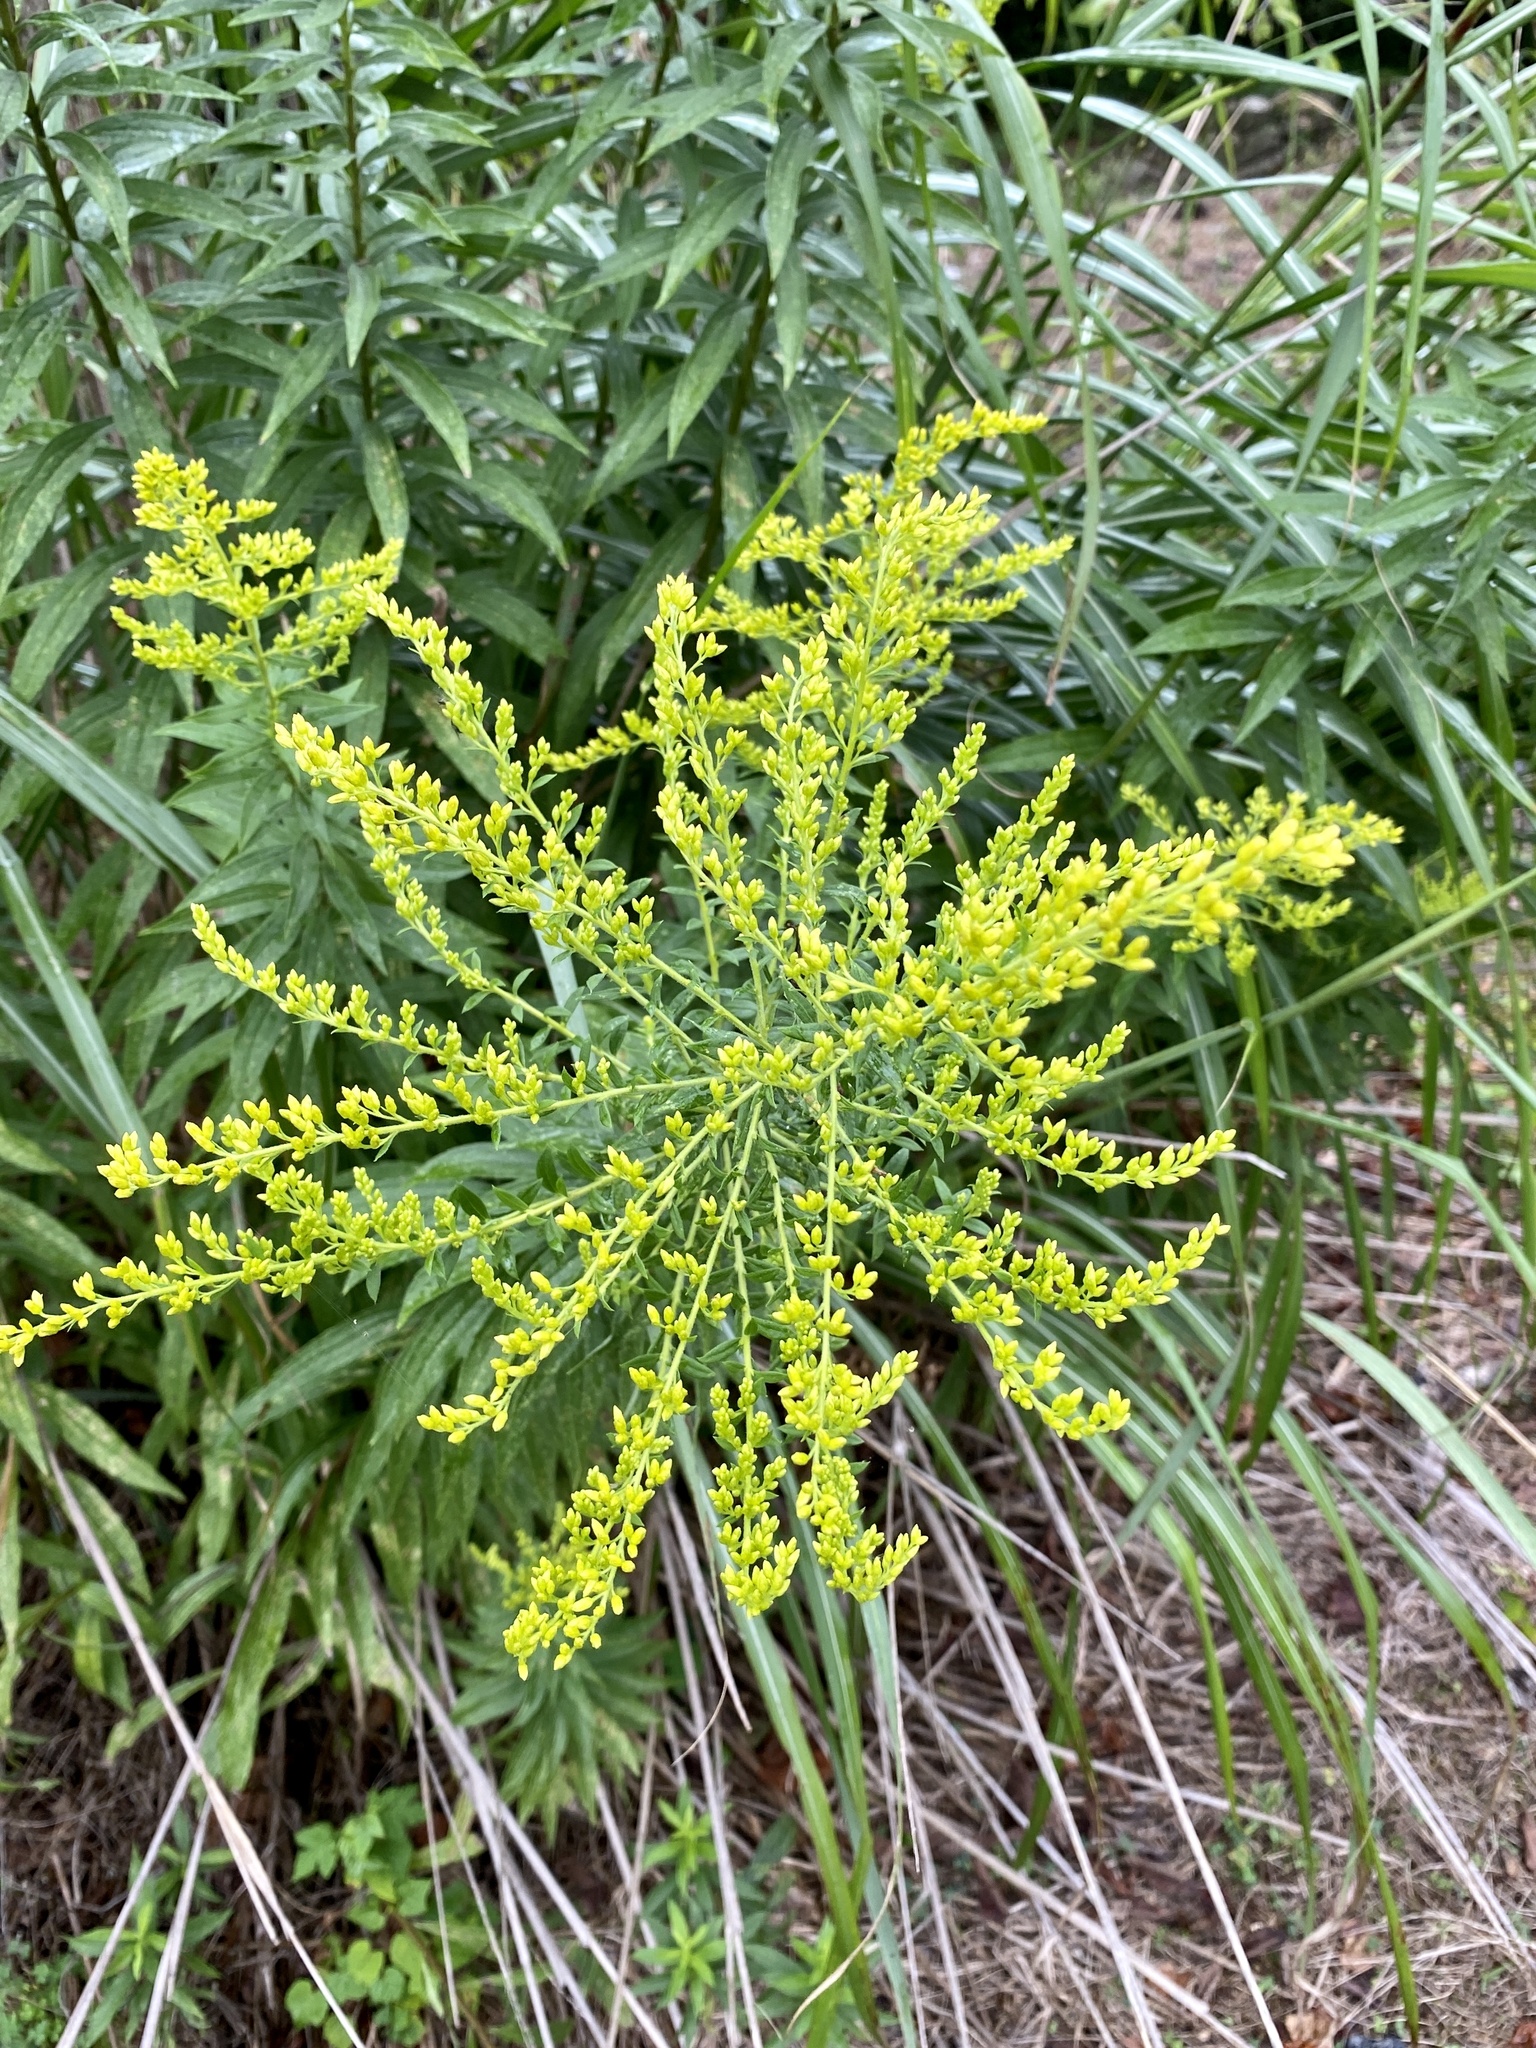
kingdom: Plantae
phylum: Tracheophyta
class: Magnoliopsida
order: Asterales
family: Asteraceae
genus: Solidago
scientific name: Solidago altissima
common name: Late goldenrod
